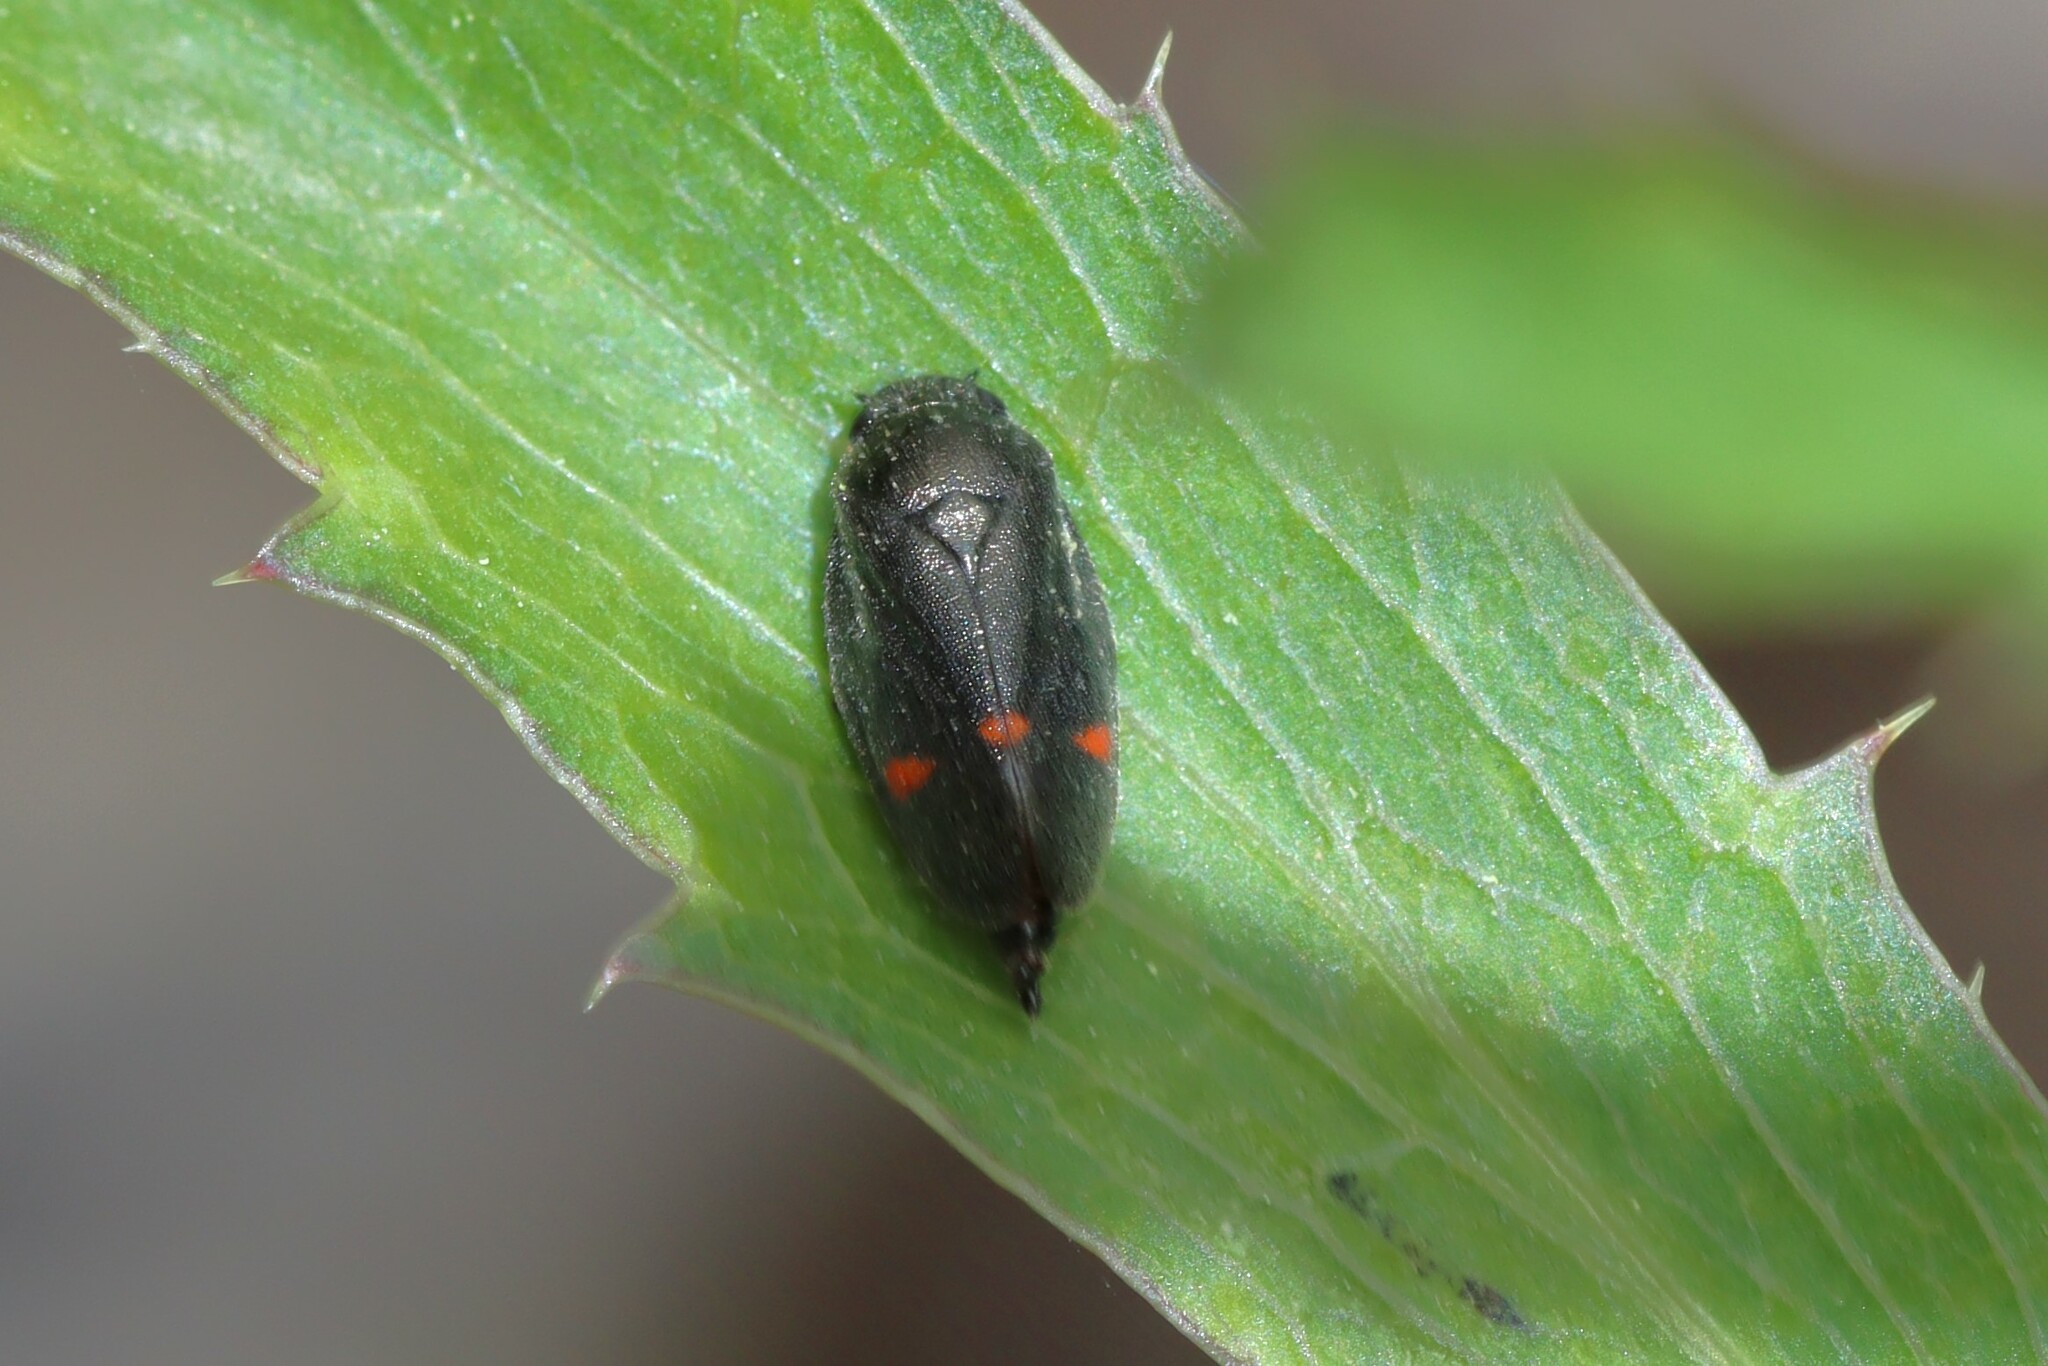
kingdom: Animalia
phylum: Arthropoda
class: Insecta
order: Hemiptera
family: Cercopidae
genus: Cercopis
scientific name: Cercopis
